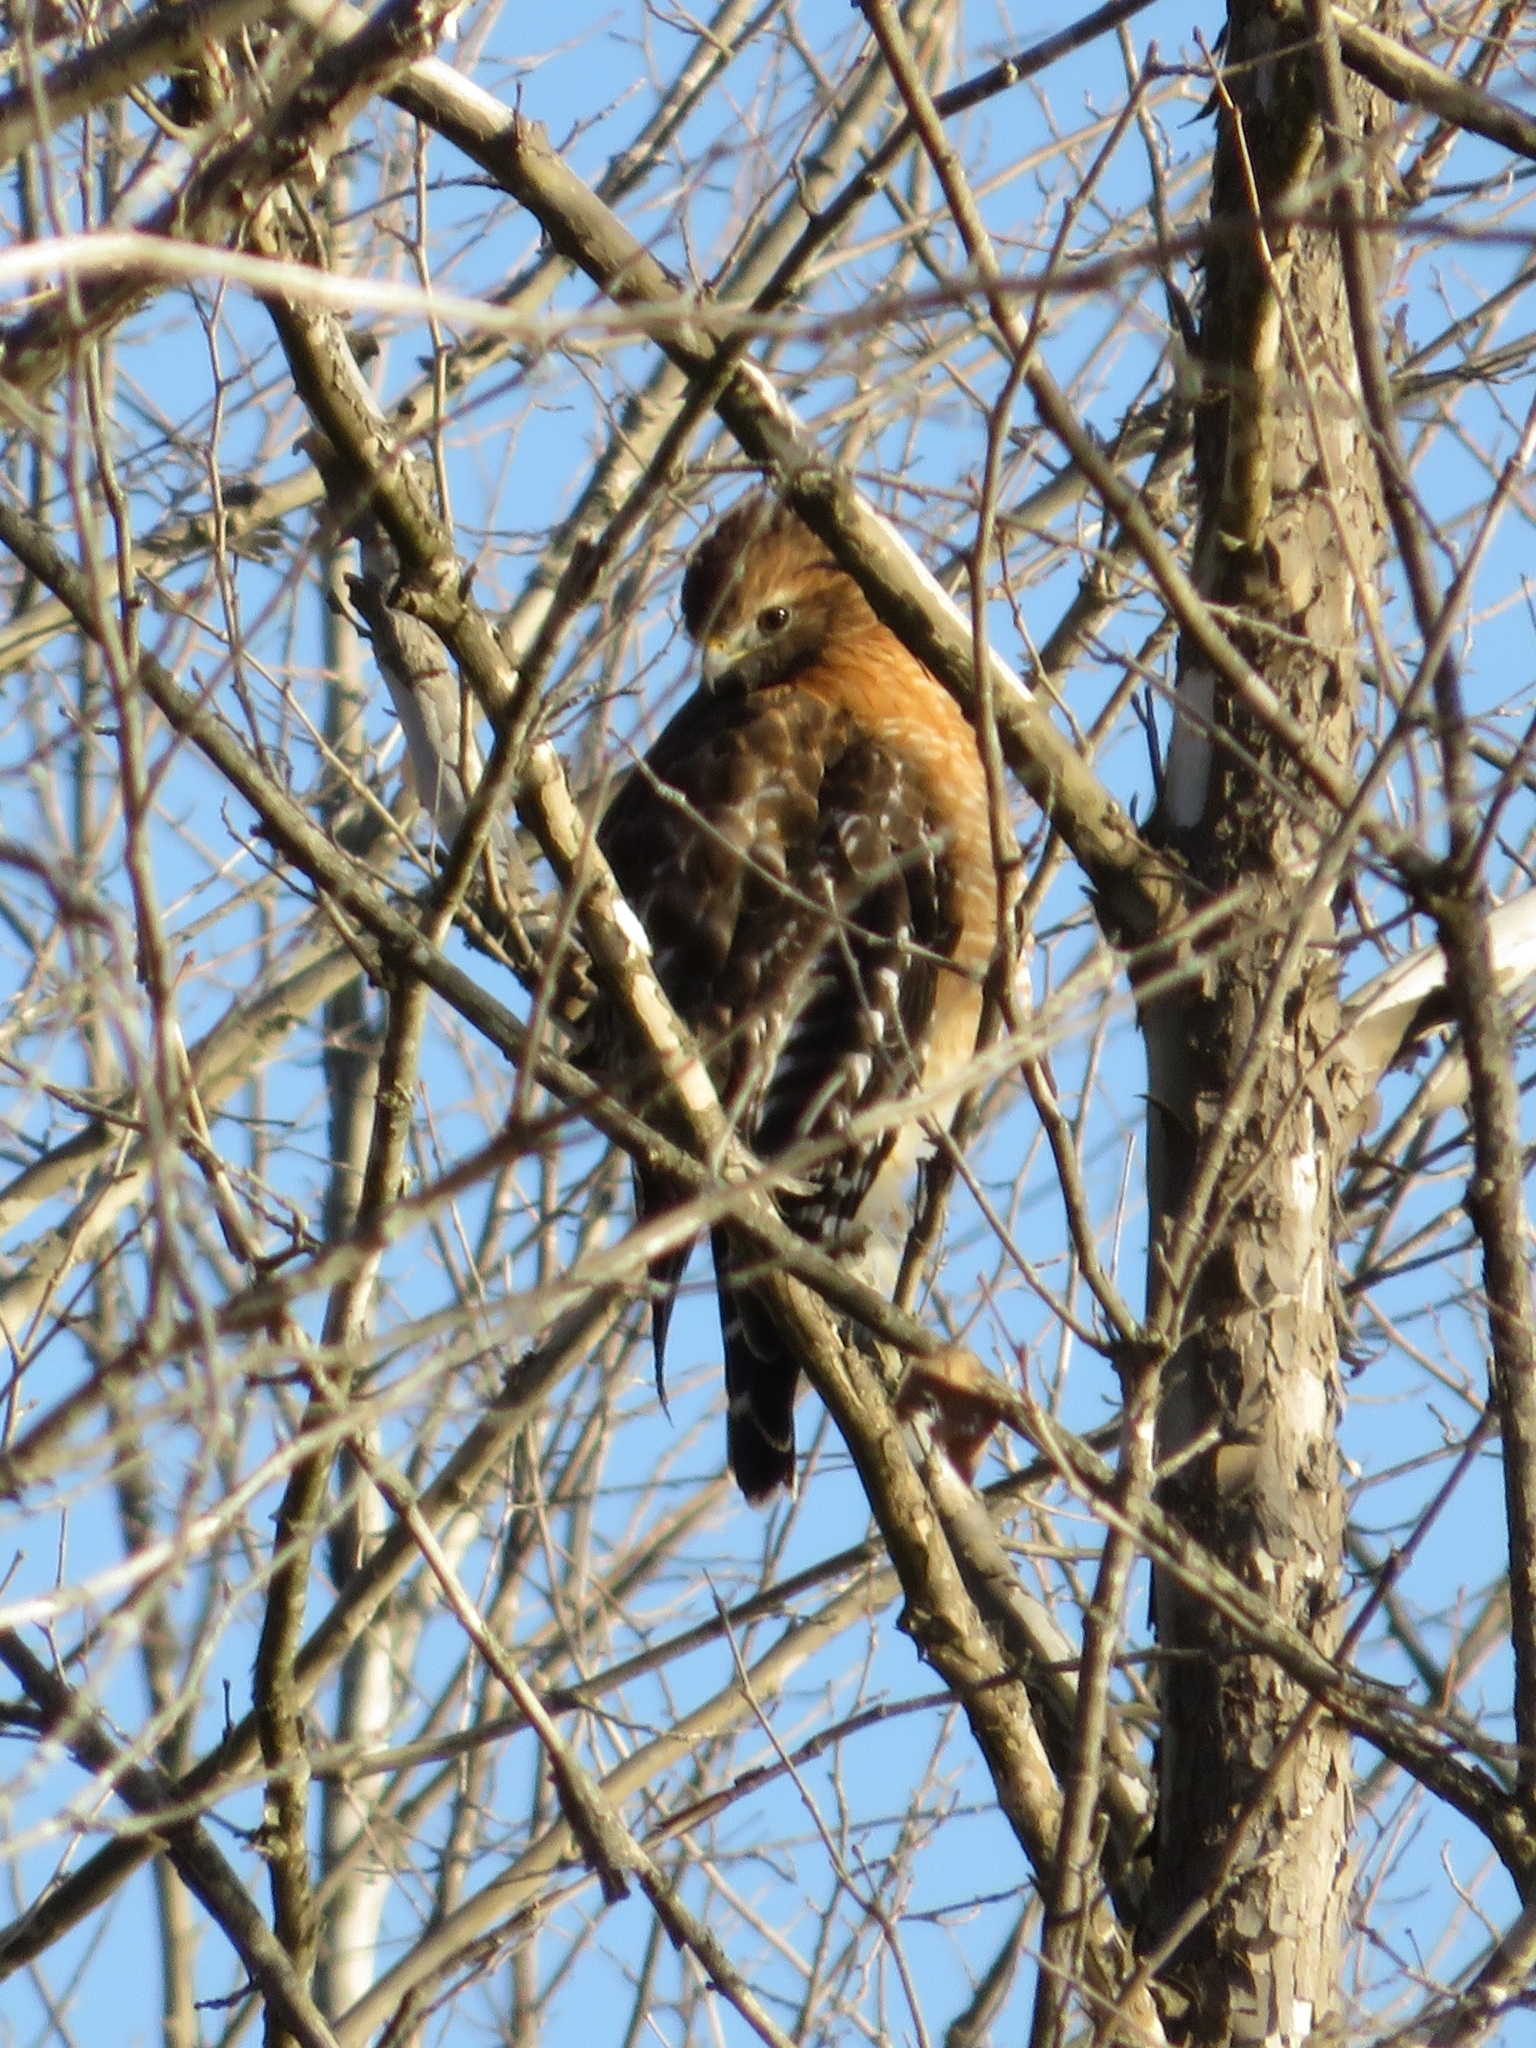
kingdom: Animalia
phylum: Chordata
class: Aves
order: Accipitriformes
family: Accipitridae
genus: Buteo
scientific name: Buteo lineatus
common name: Red-shouldered hawk
